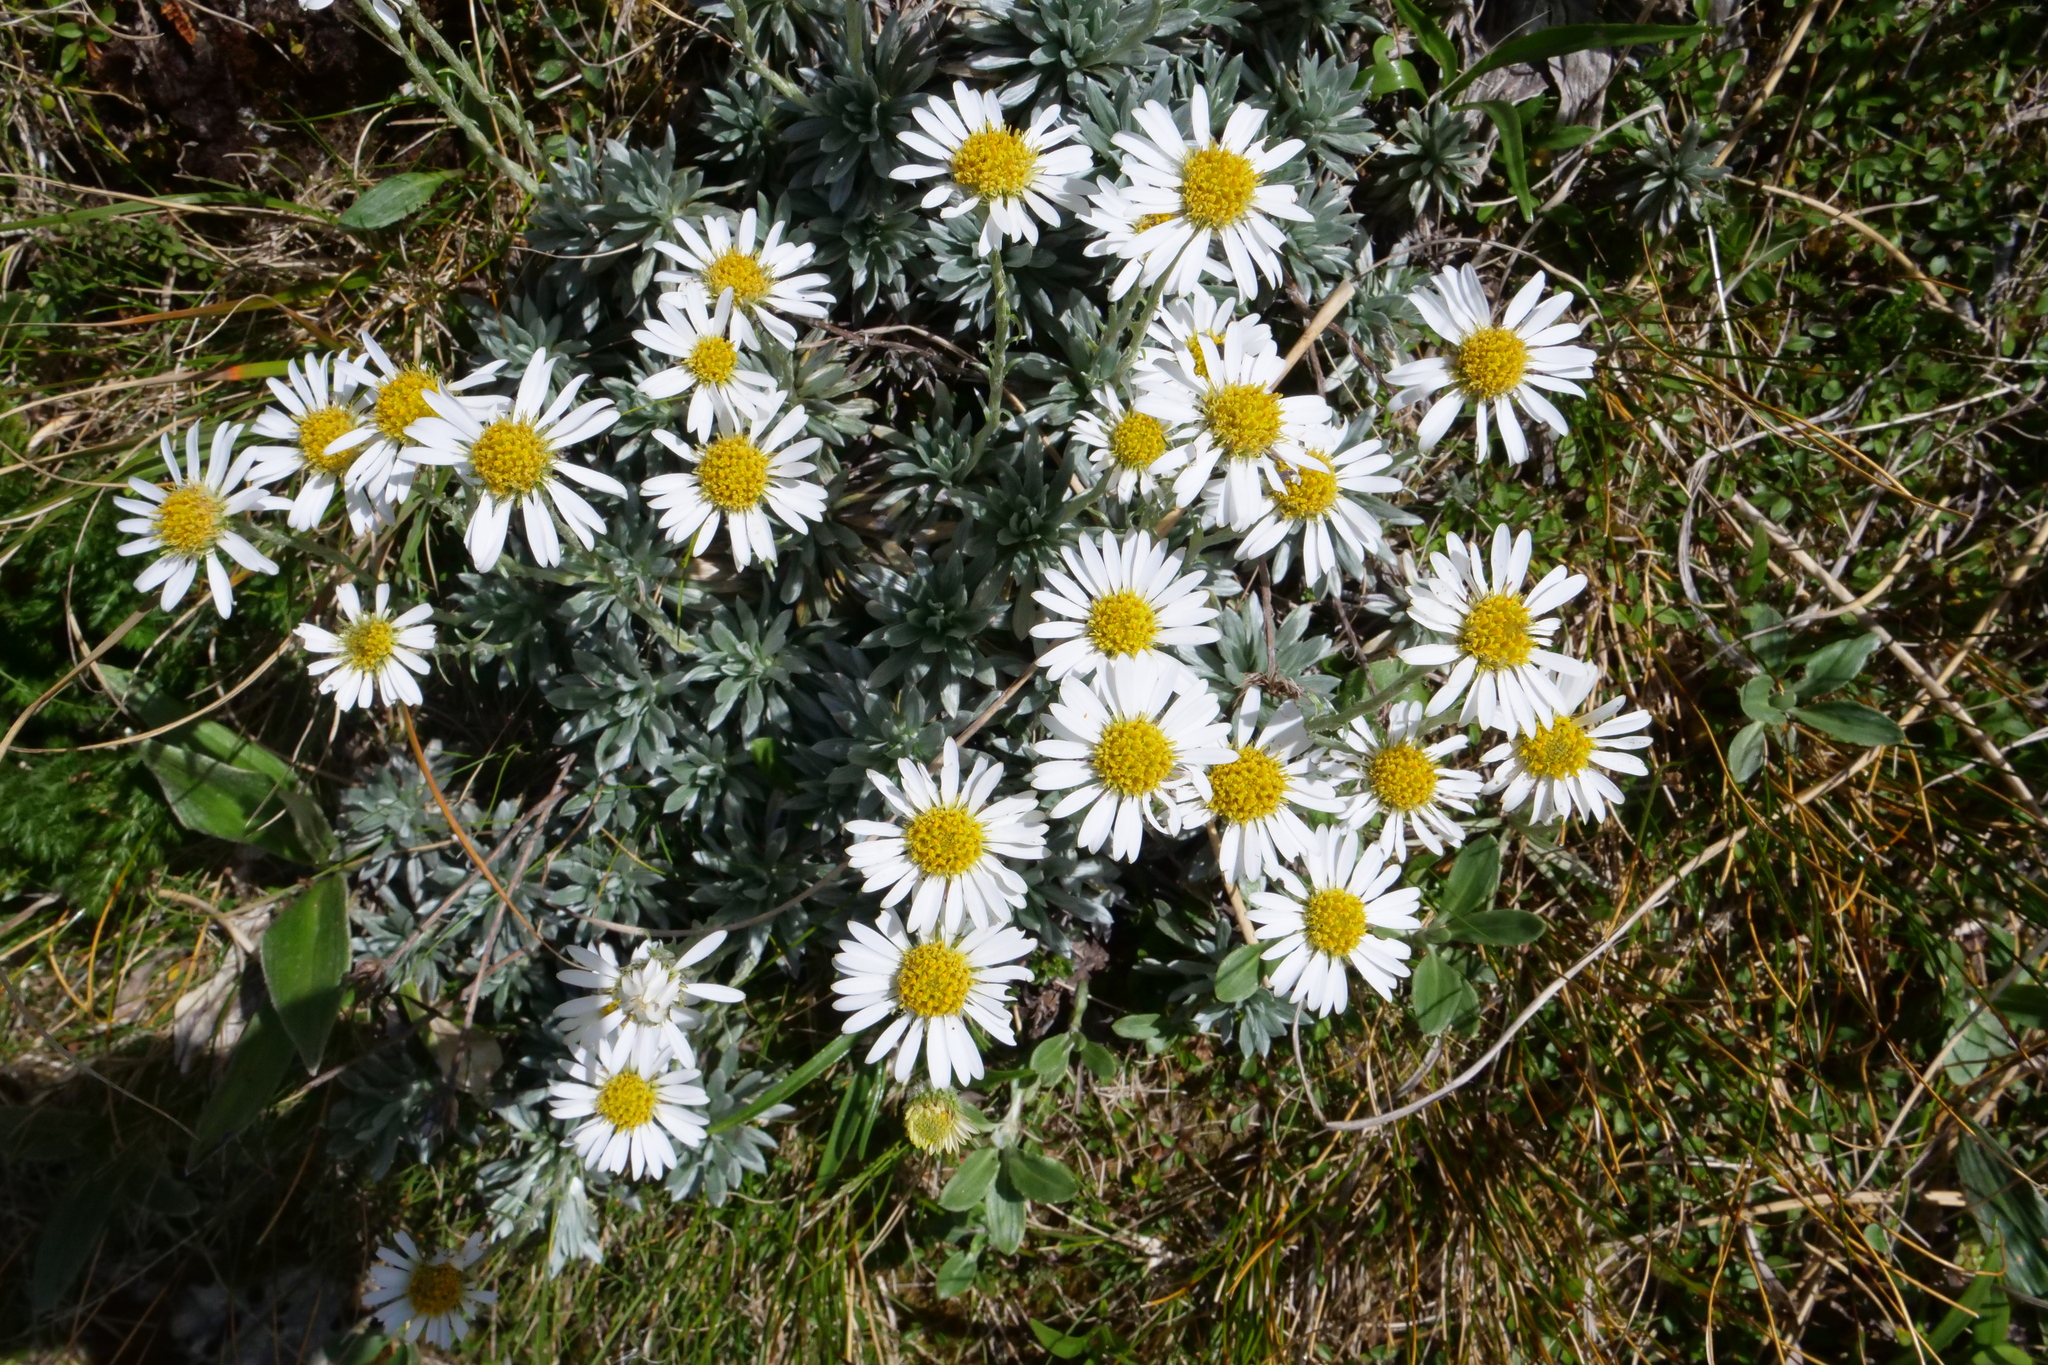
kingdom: Plantae
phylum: Tracheophyta
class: Magnoliopsida
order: Asterales
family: Asteraceae
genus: Celmisia
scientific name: Celmisia hectorii
